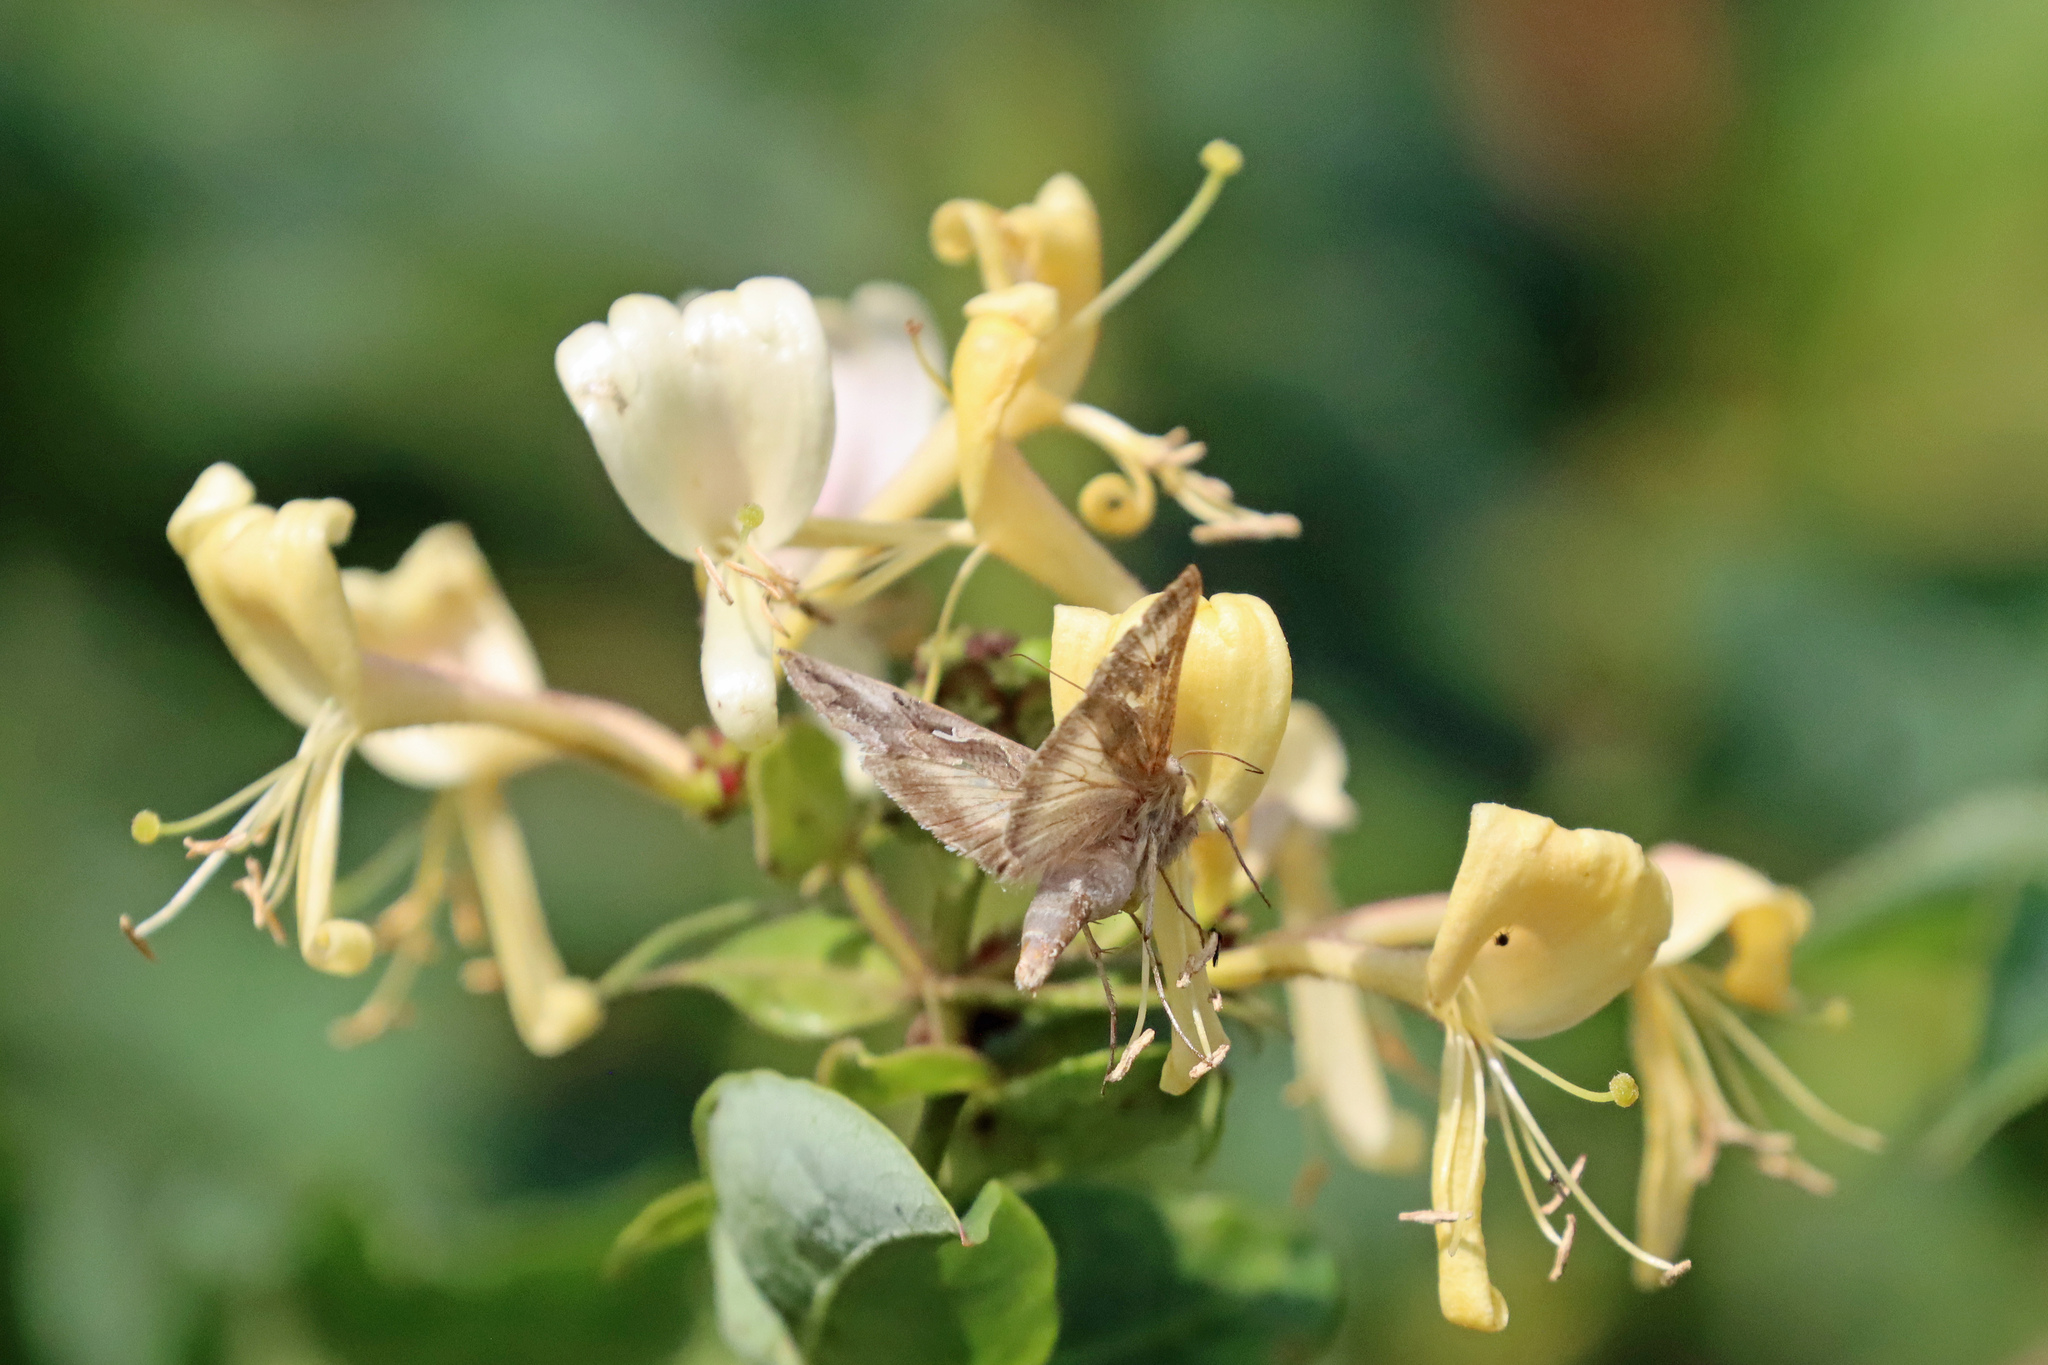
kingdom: Animalia
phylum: Arthropoda
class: Insecta
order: Lepidoptera
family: Noctuidae
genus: Autographa
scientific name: Autographa gamma
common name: Silver y
